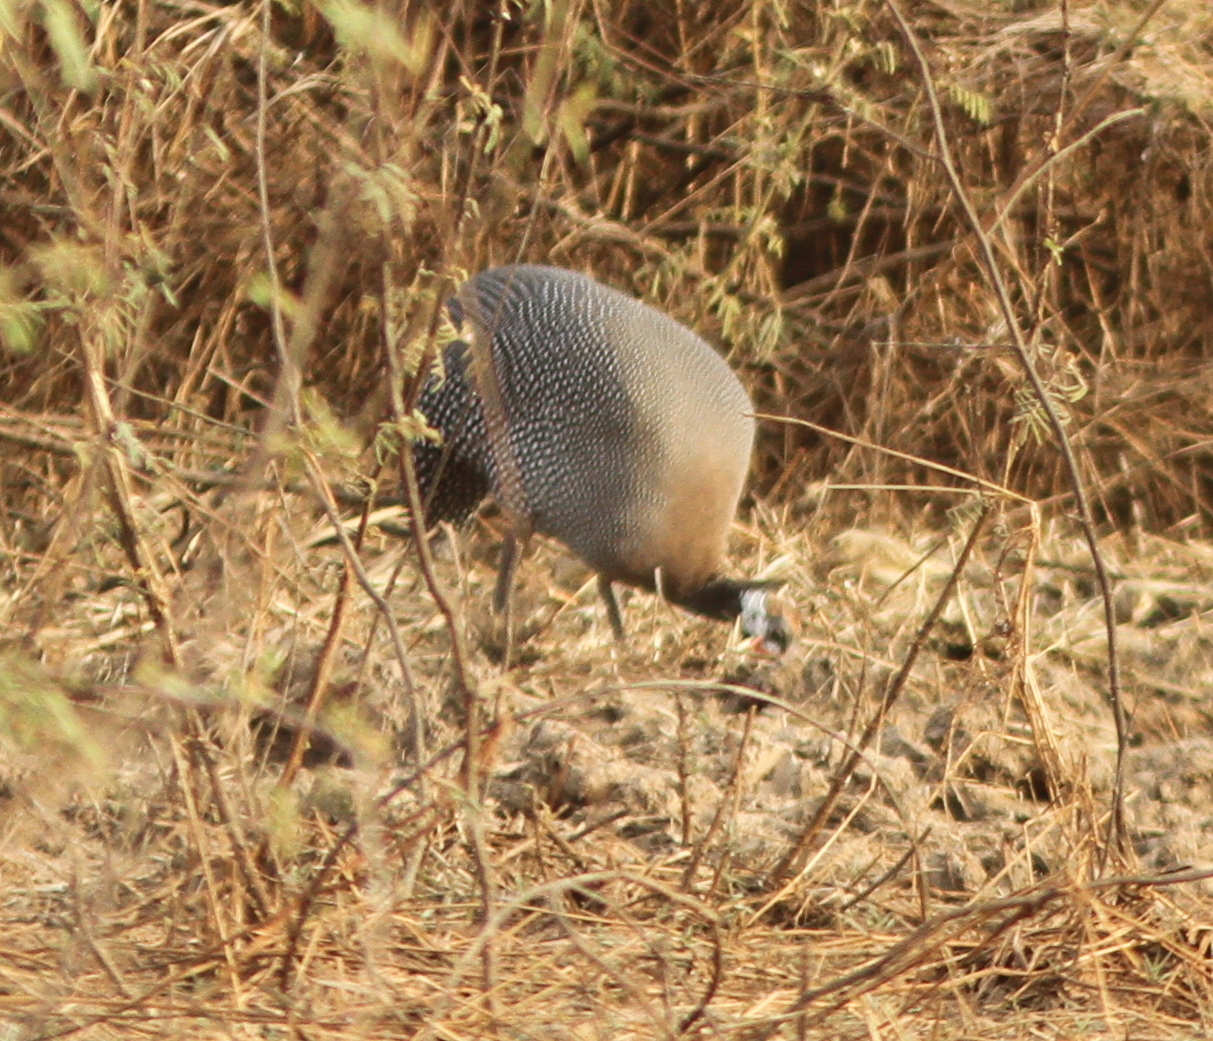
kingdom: Animalia
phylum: Chordata
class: Aves
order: Galliformes
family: Numididae
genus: Numida
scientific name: Numida meleagris
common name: Helmeted guineafowl
